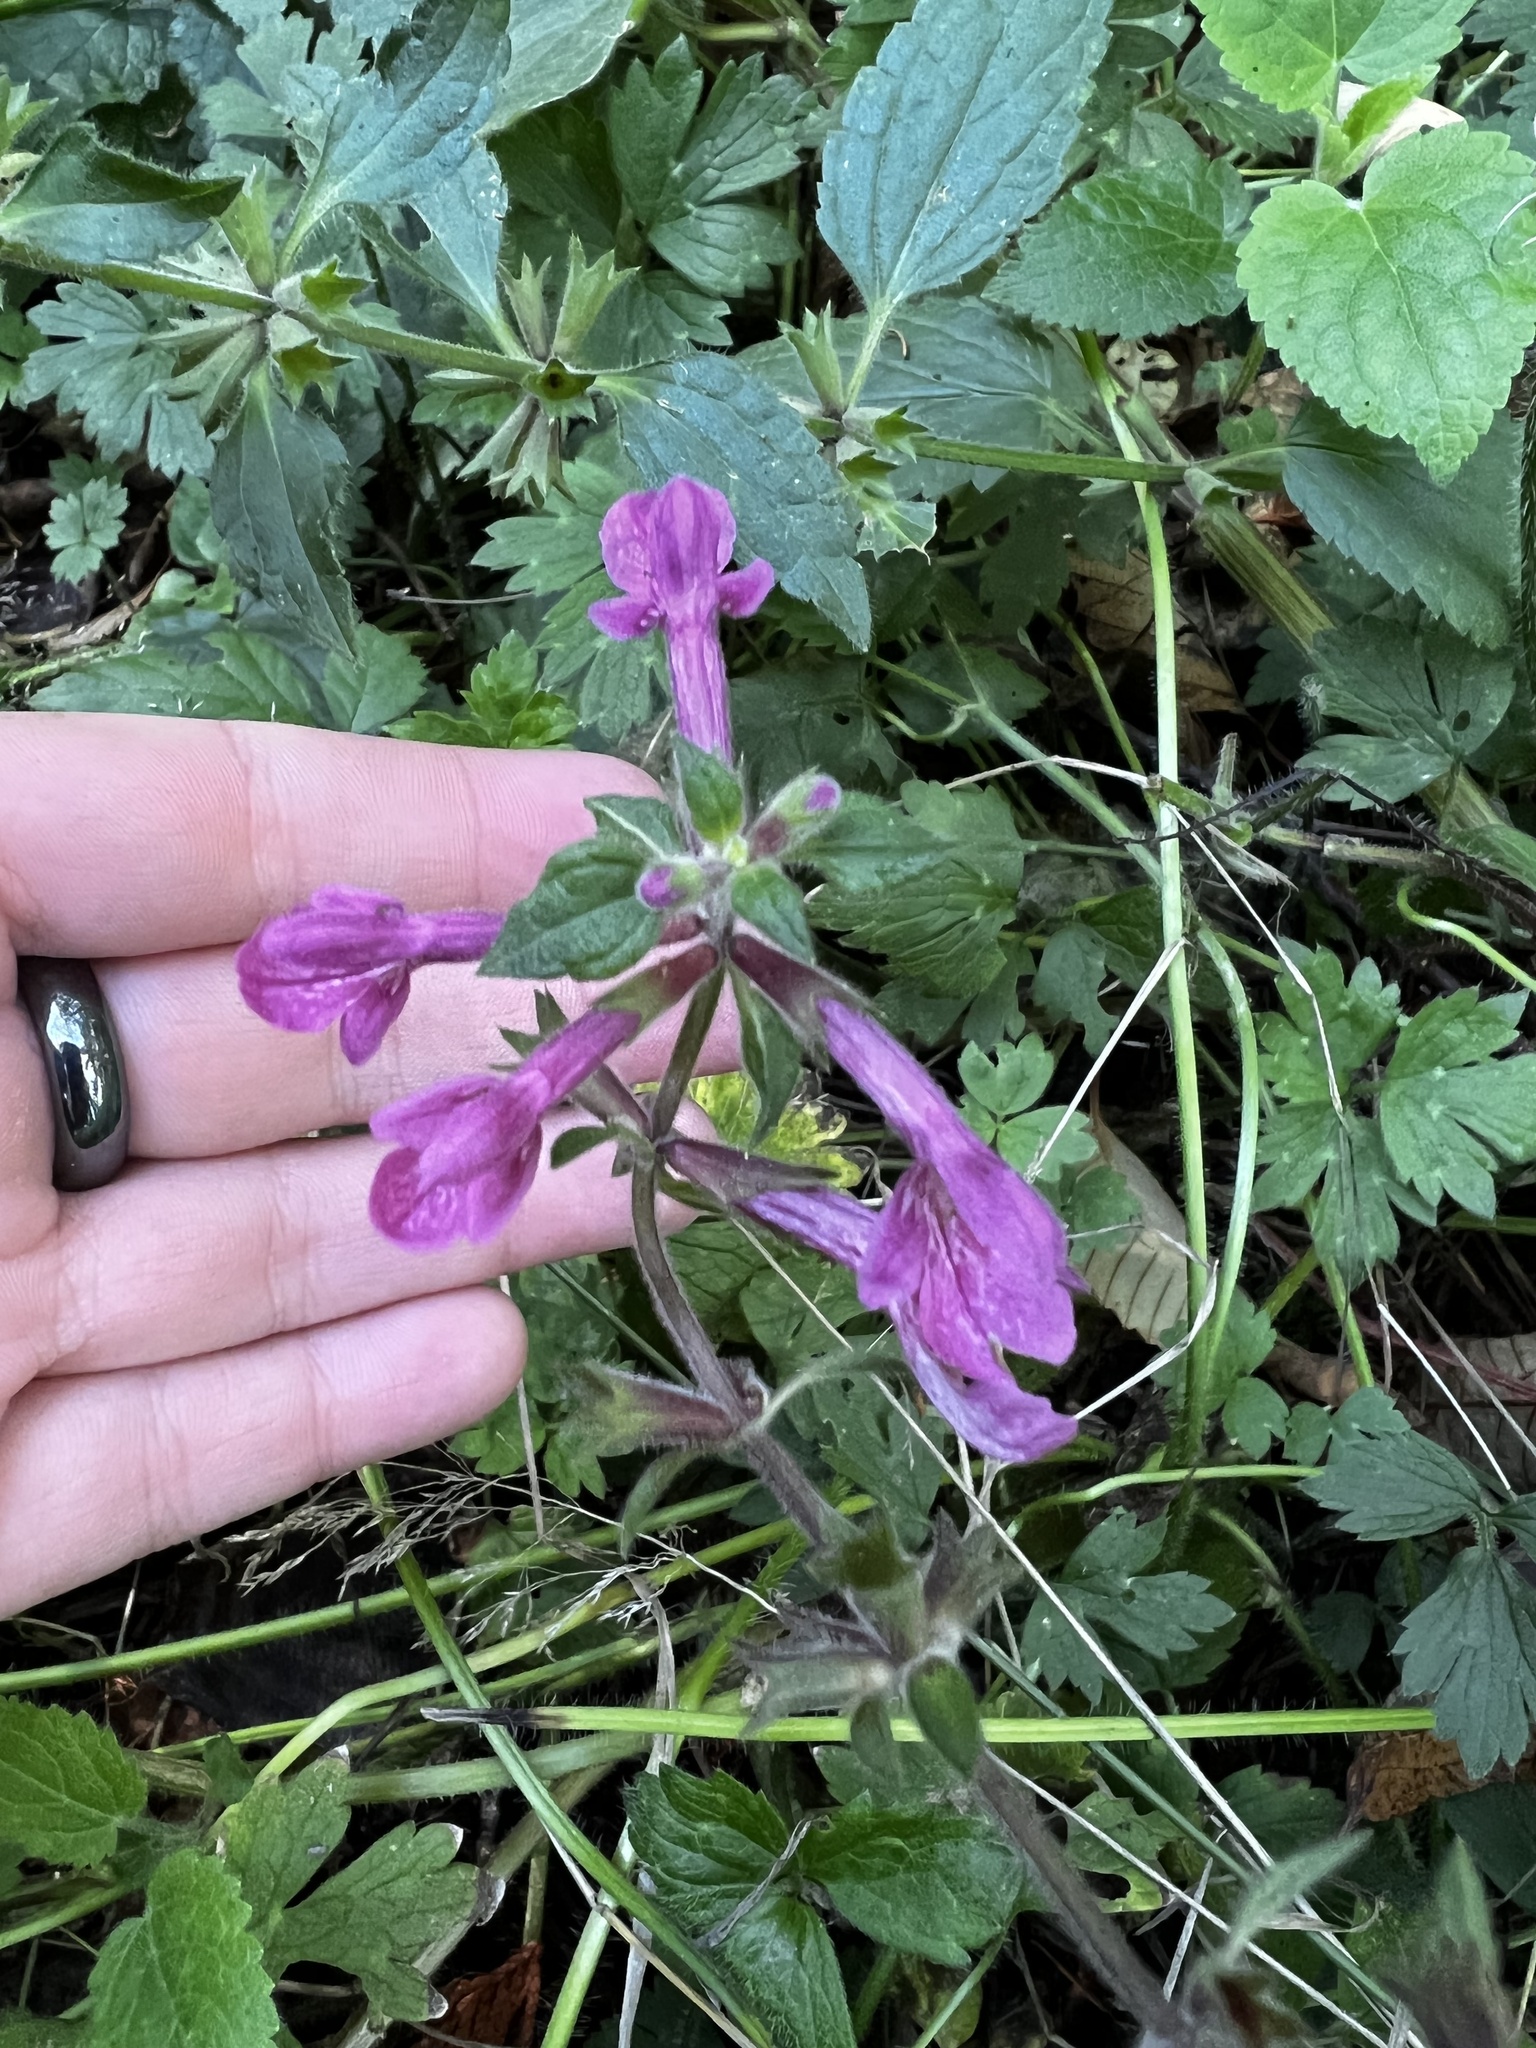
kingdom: Plantae
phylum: Tracheophyta
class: Magnoliopsida
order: Lamiales
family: Lamiaceae
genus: Stachys
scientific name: Stachys chamissonis
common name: Coastal hedge-nettle
